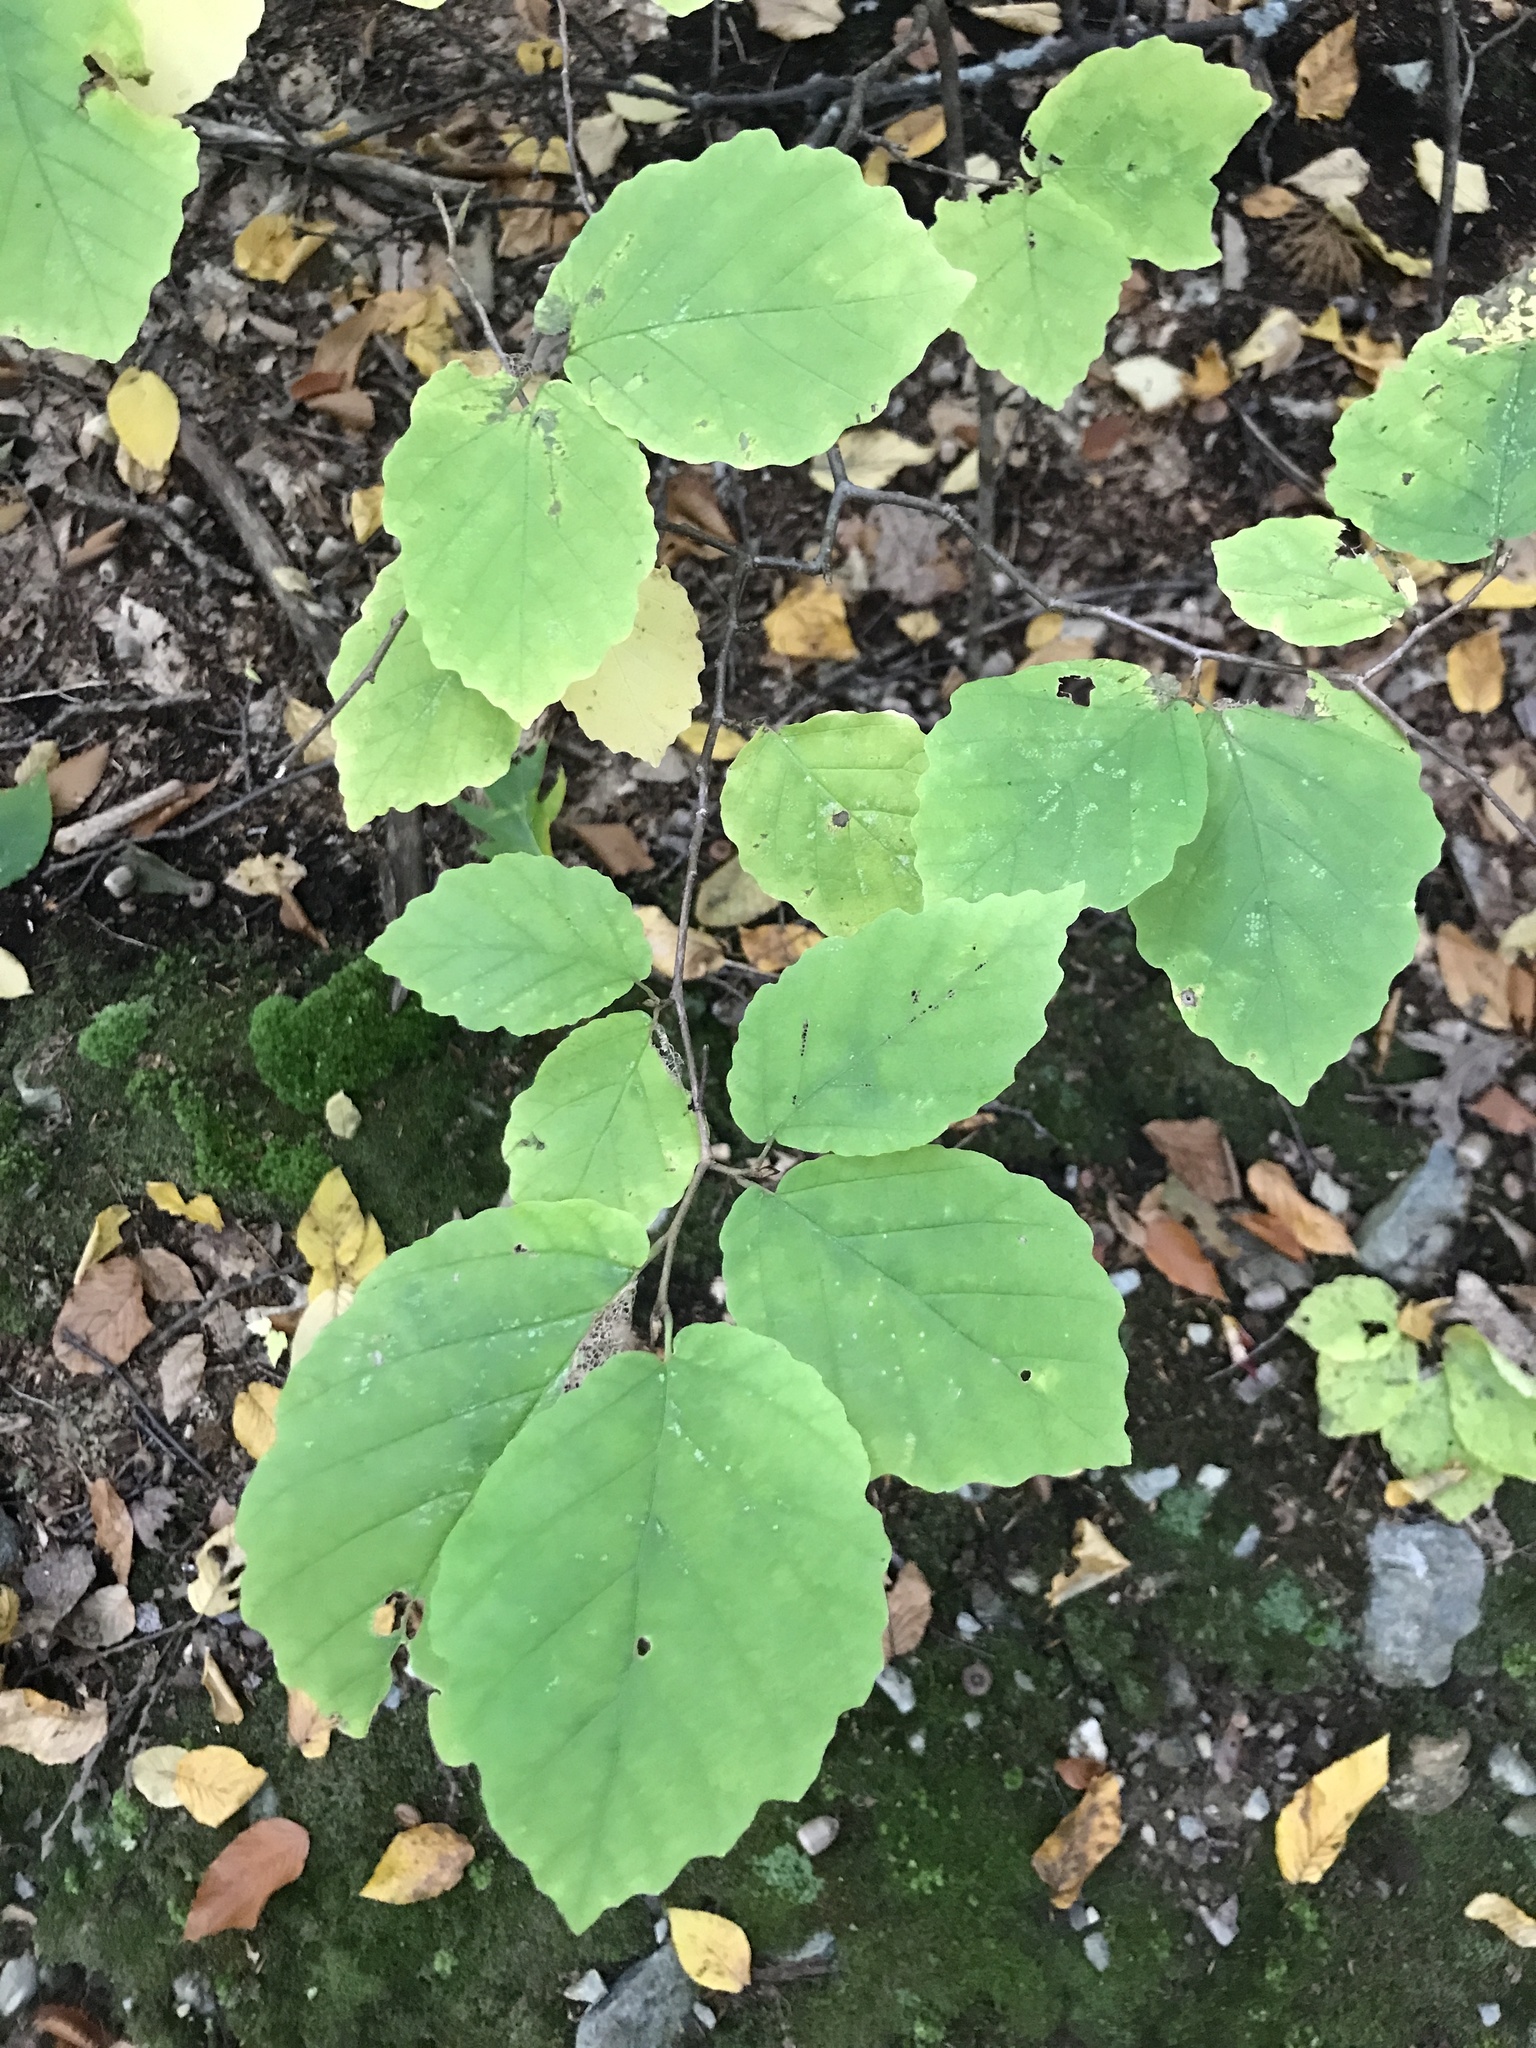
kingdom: Plantae
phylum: Tracheophyta
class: Magnoliopsida
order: Saxifragales
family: Hamamelidaceae
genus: Hamamelis
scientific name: Hamamelis virginiana
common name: Witch-hazel
